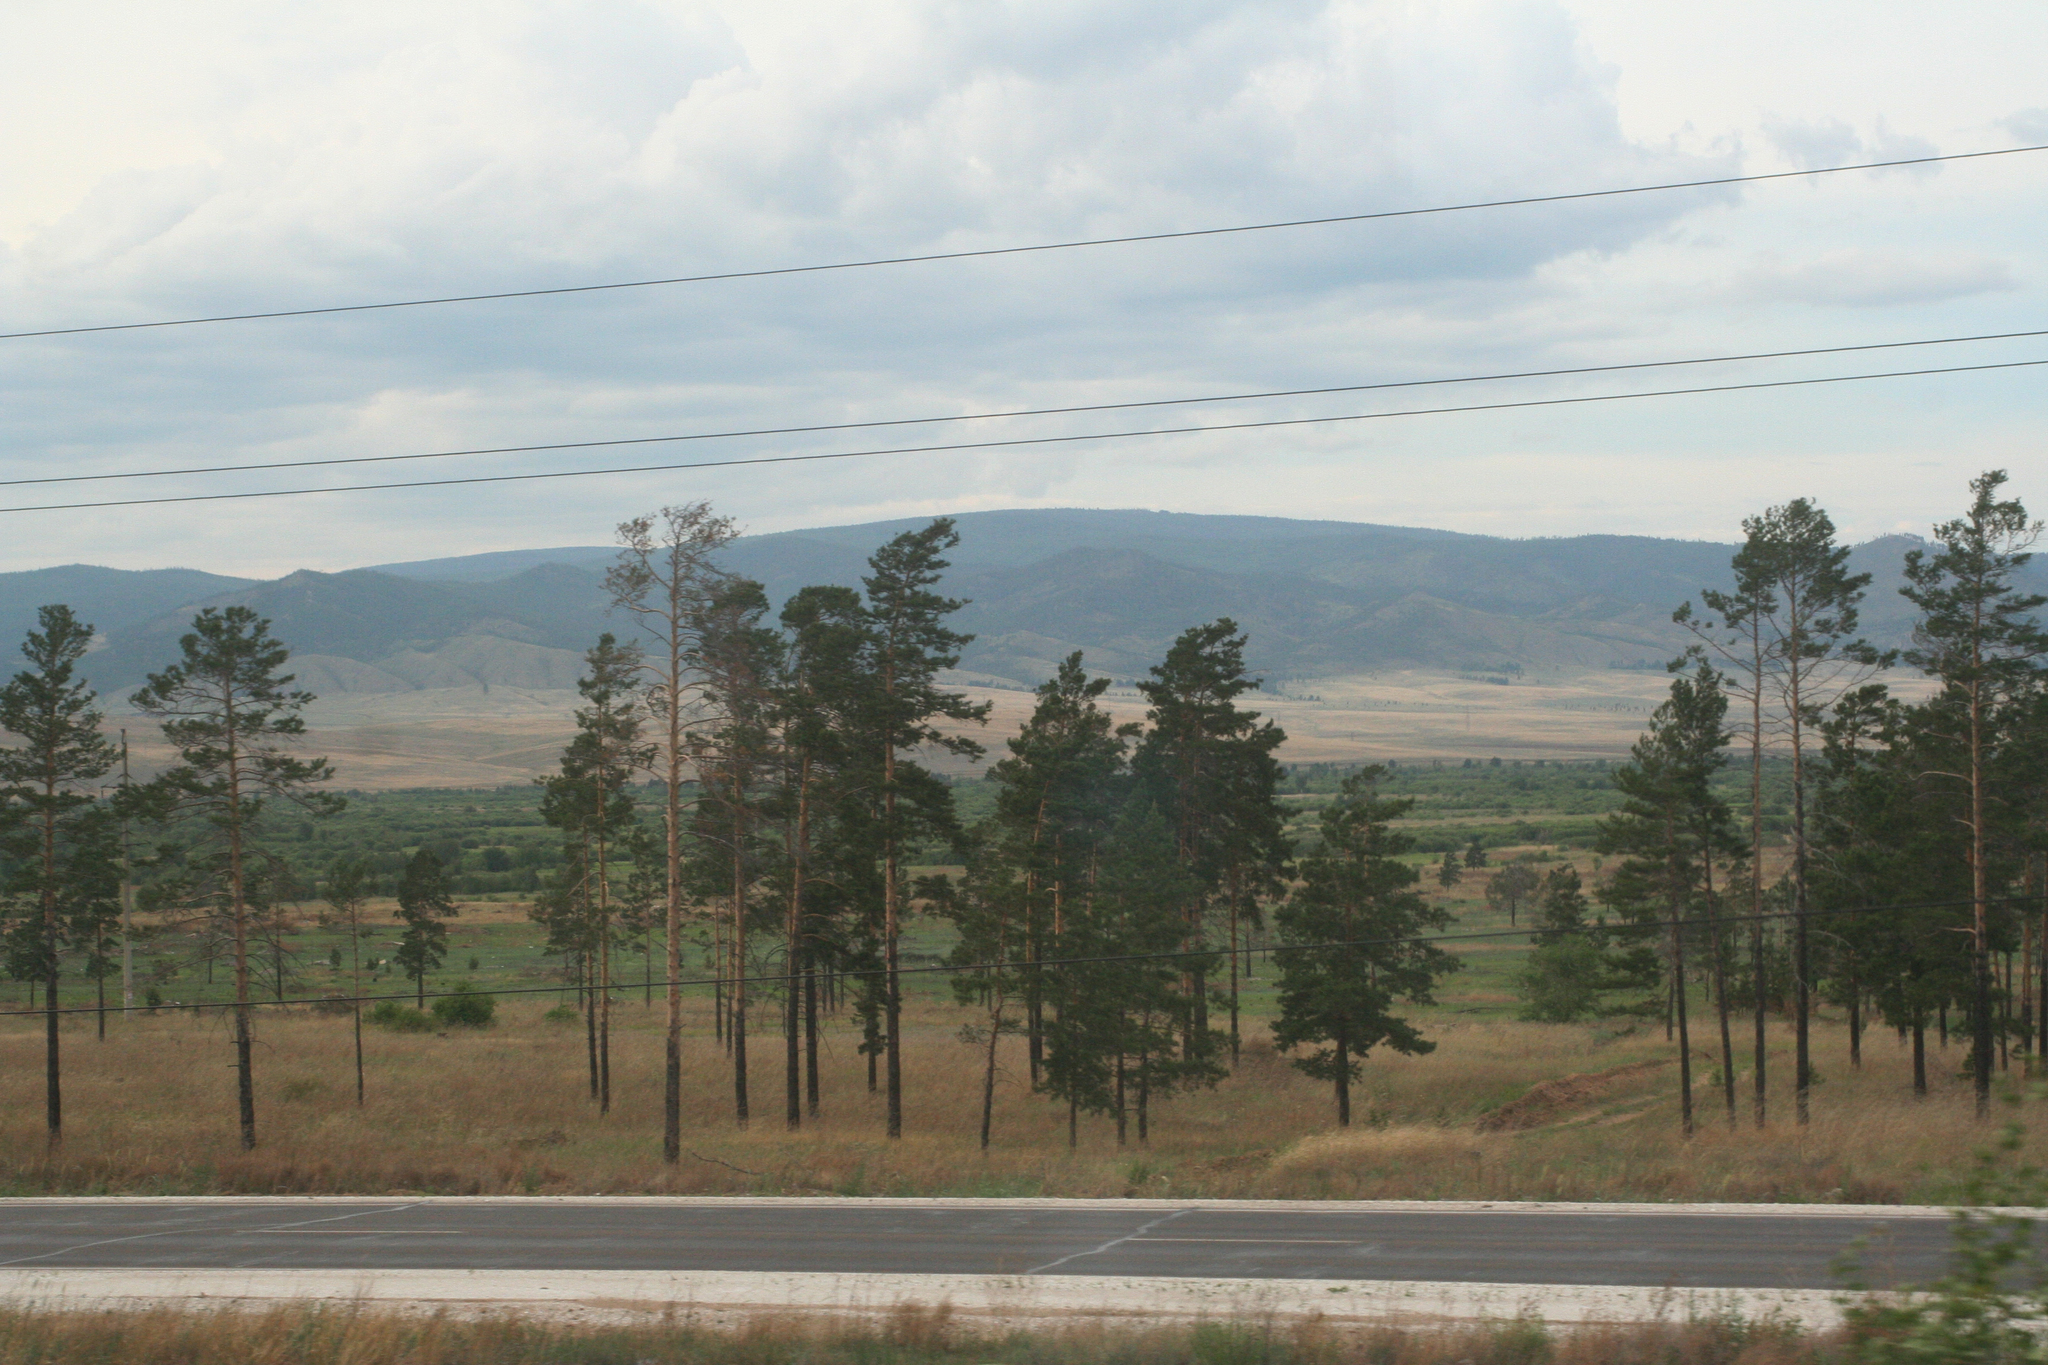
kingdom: Plantae
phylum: Tracheophyta
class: Pinopsida
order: Pinales
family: Pinaceae
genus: Pinus
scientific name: Pinus sylvestris
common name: Scots pine
